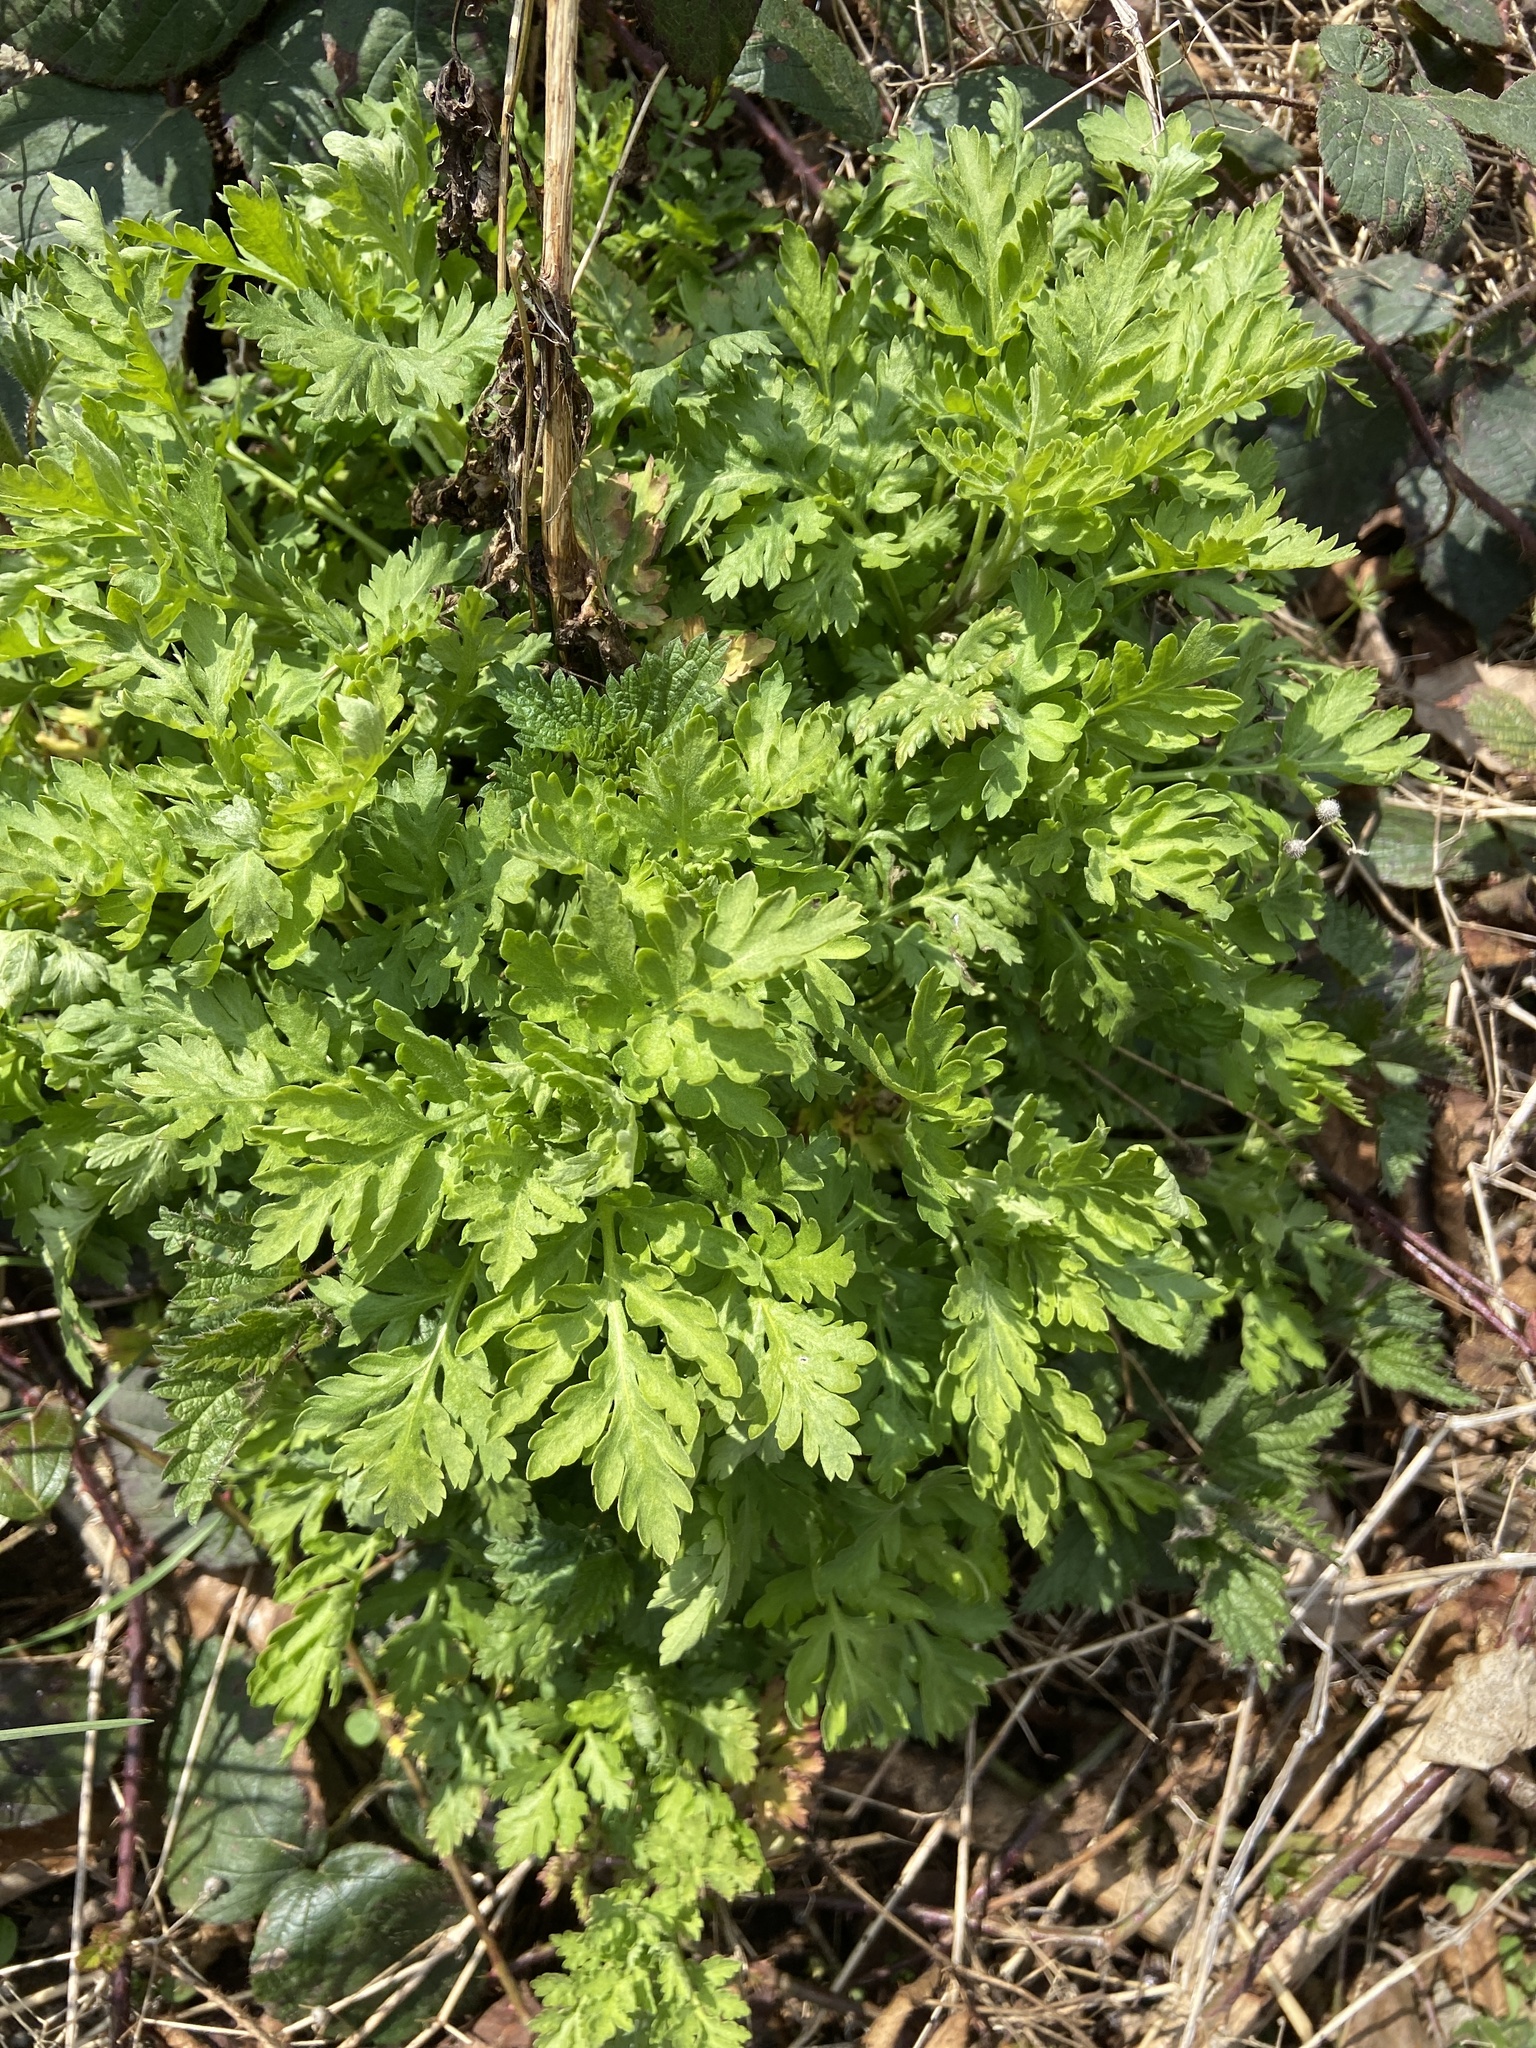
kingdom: Plantae
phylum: Tracheophyta
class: Magnoliopsida
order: Asterales
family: Asteraceae
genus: Artemisia
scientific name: Artemisia vulgaris
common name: Mugwort
